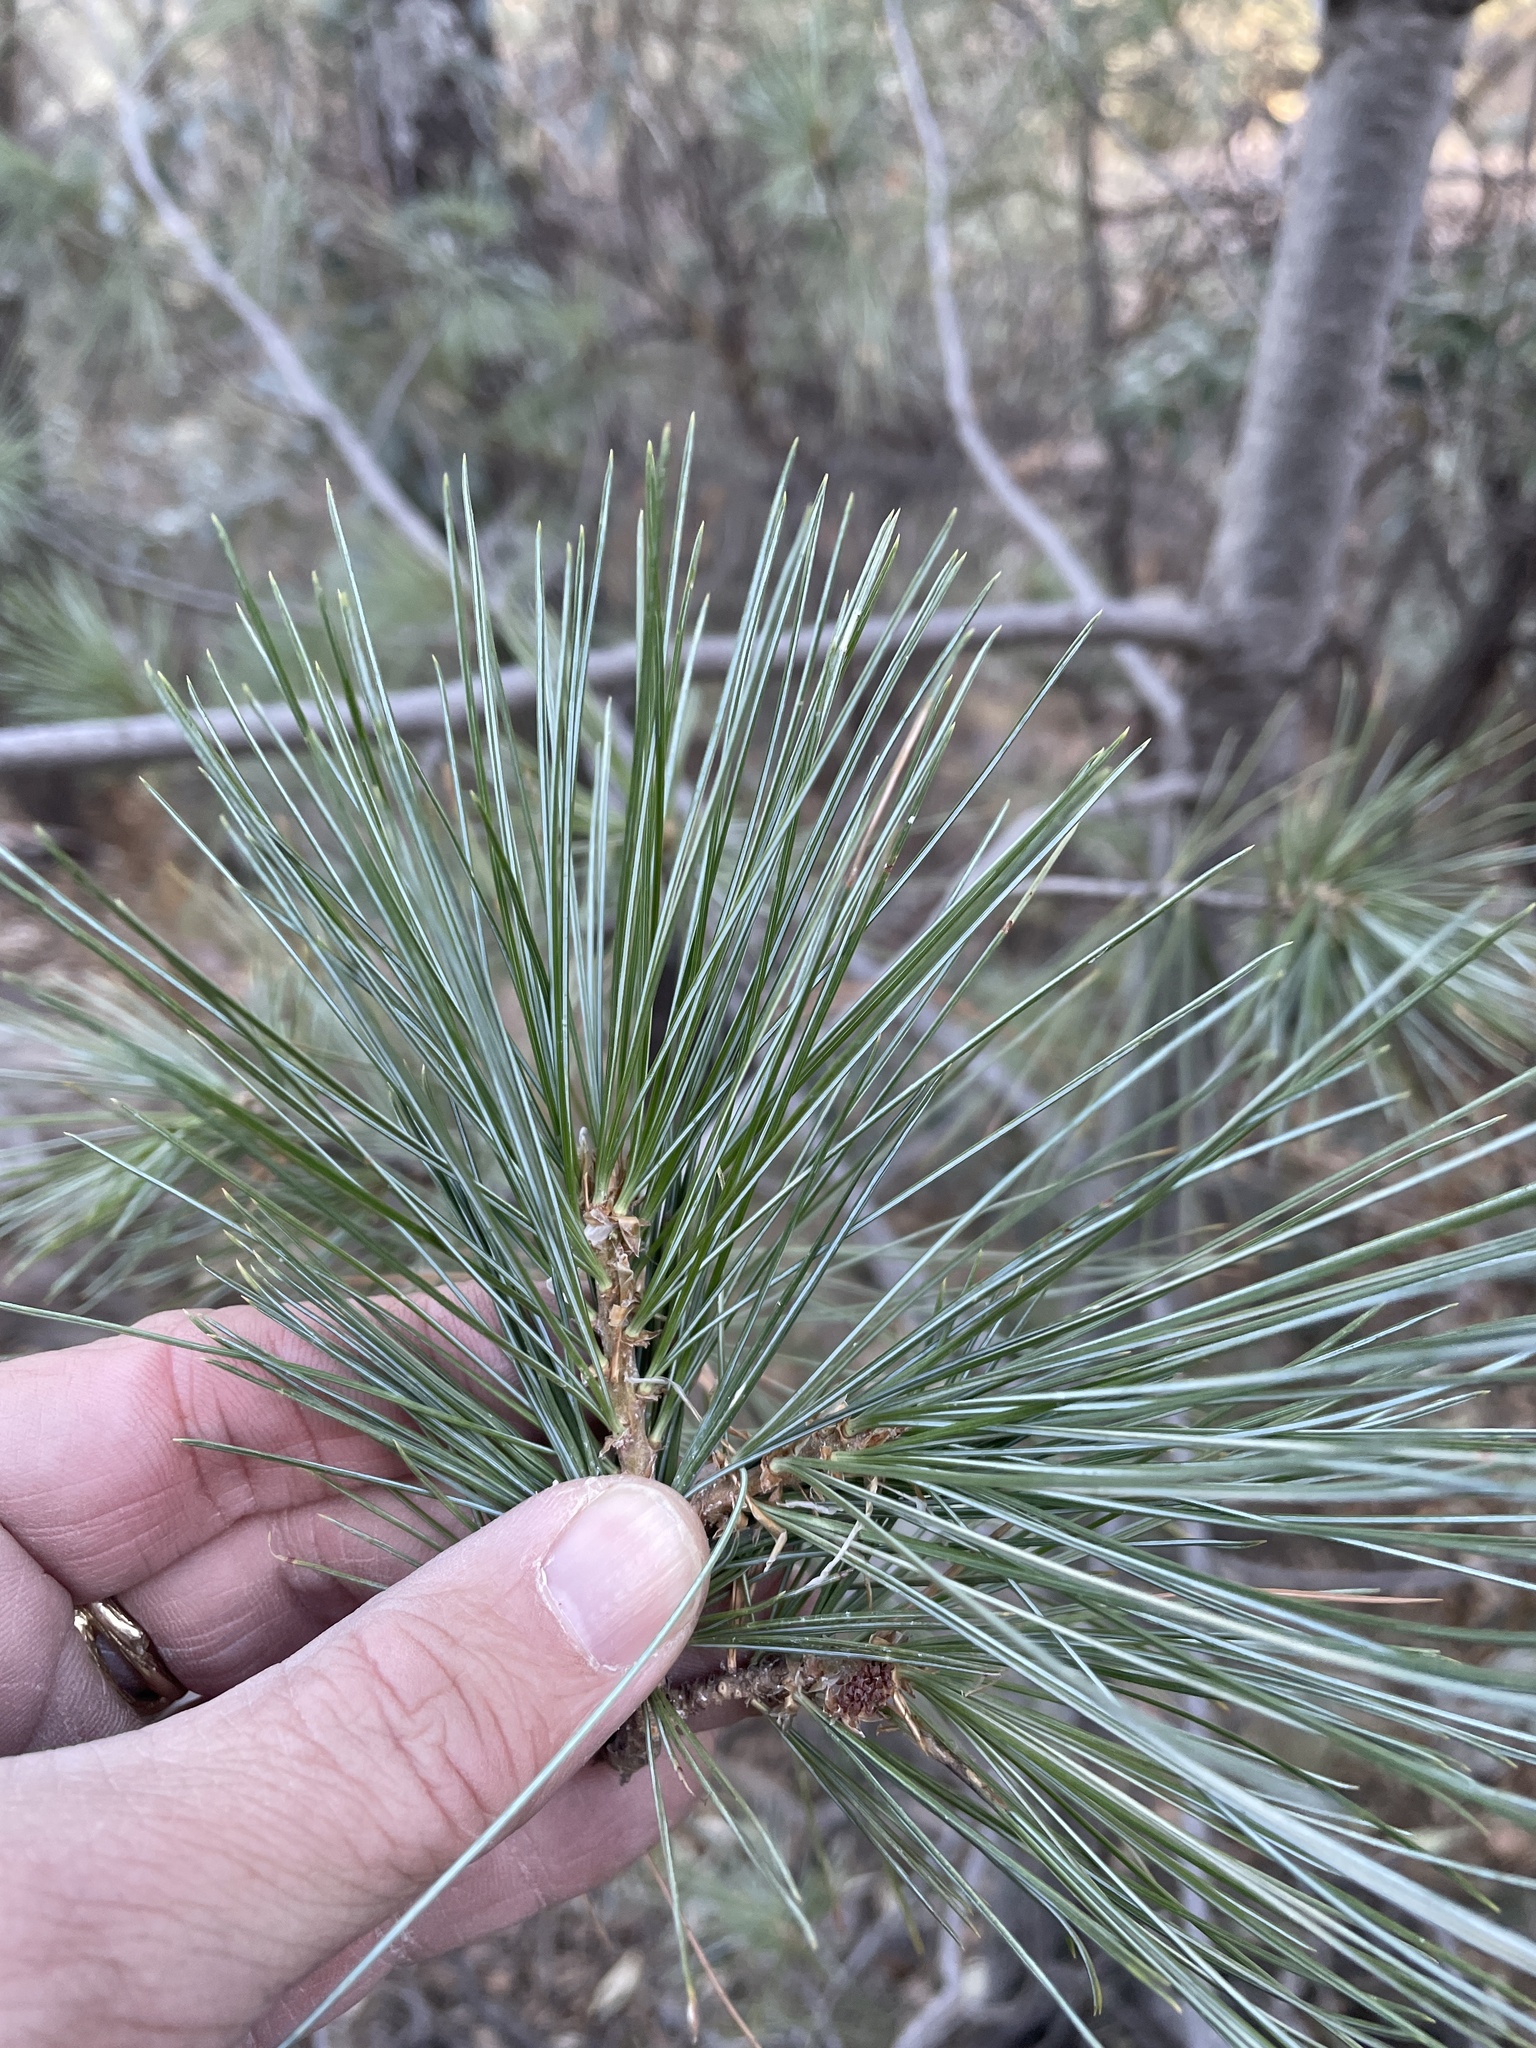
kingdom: Plantae
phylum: Tracheophyta
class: Pinopsida
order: Pinales
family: Pinaceae
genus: Pinus
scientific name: Pinus strobiformis
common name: Southwestern white pine
